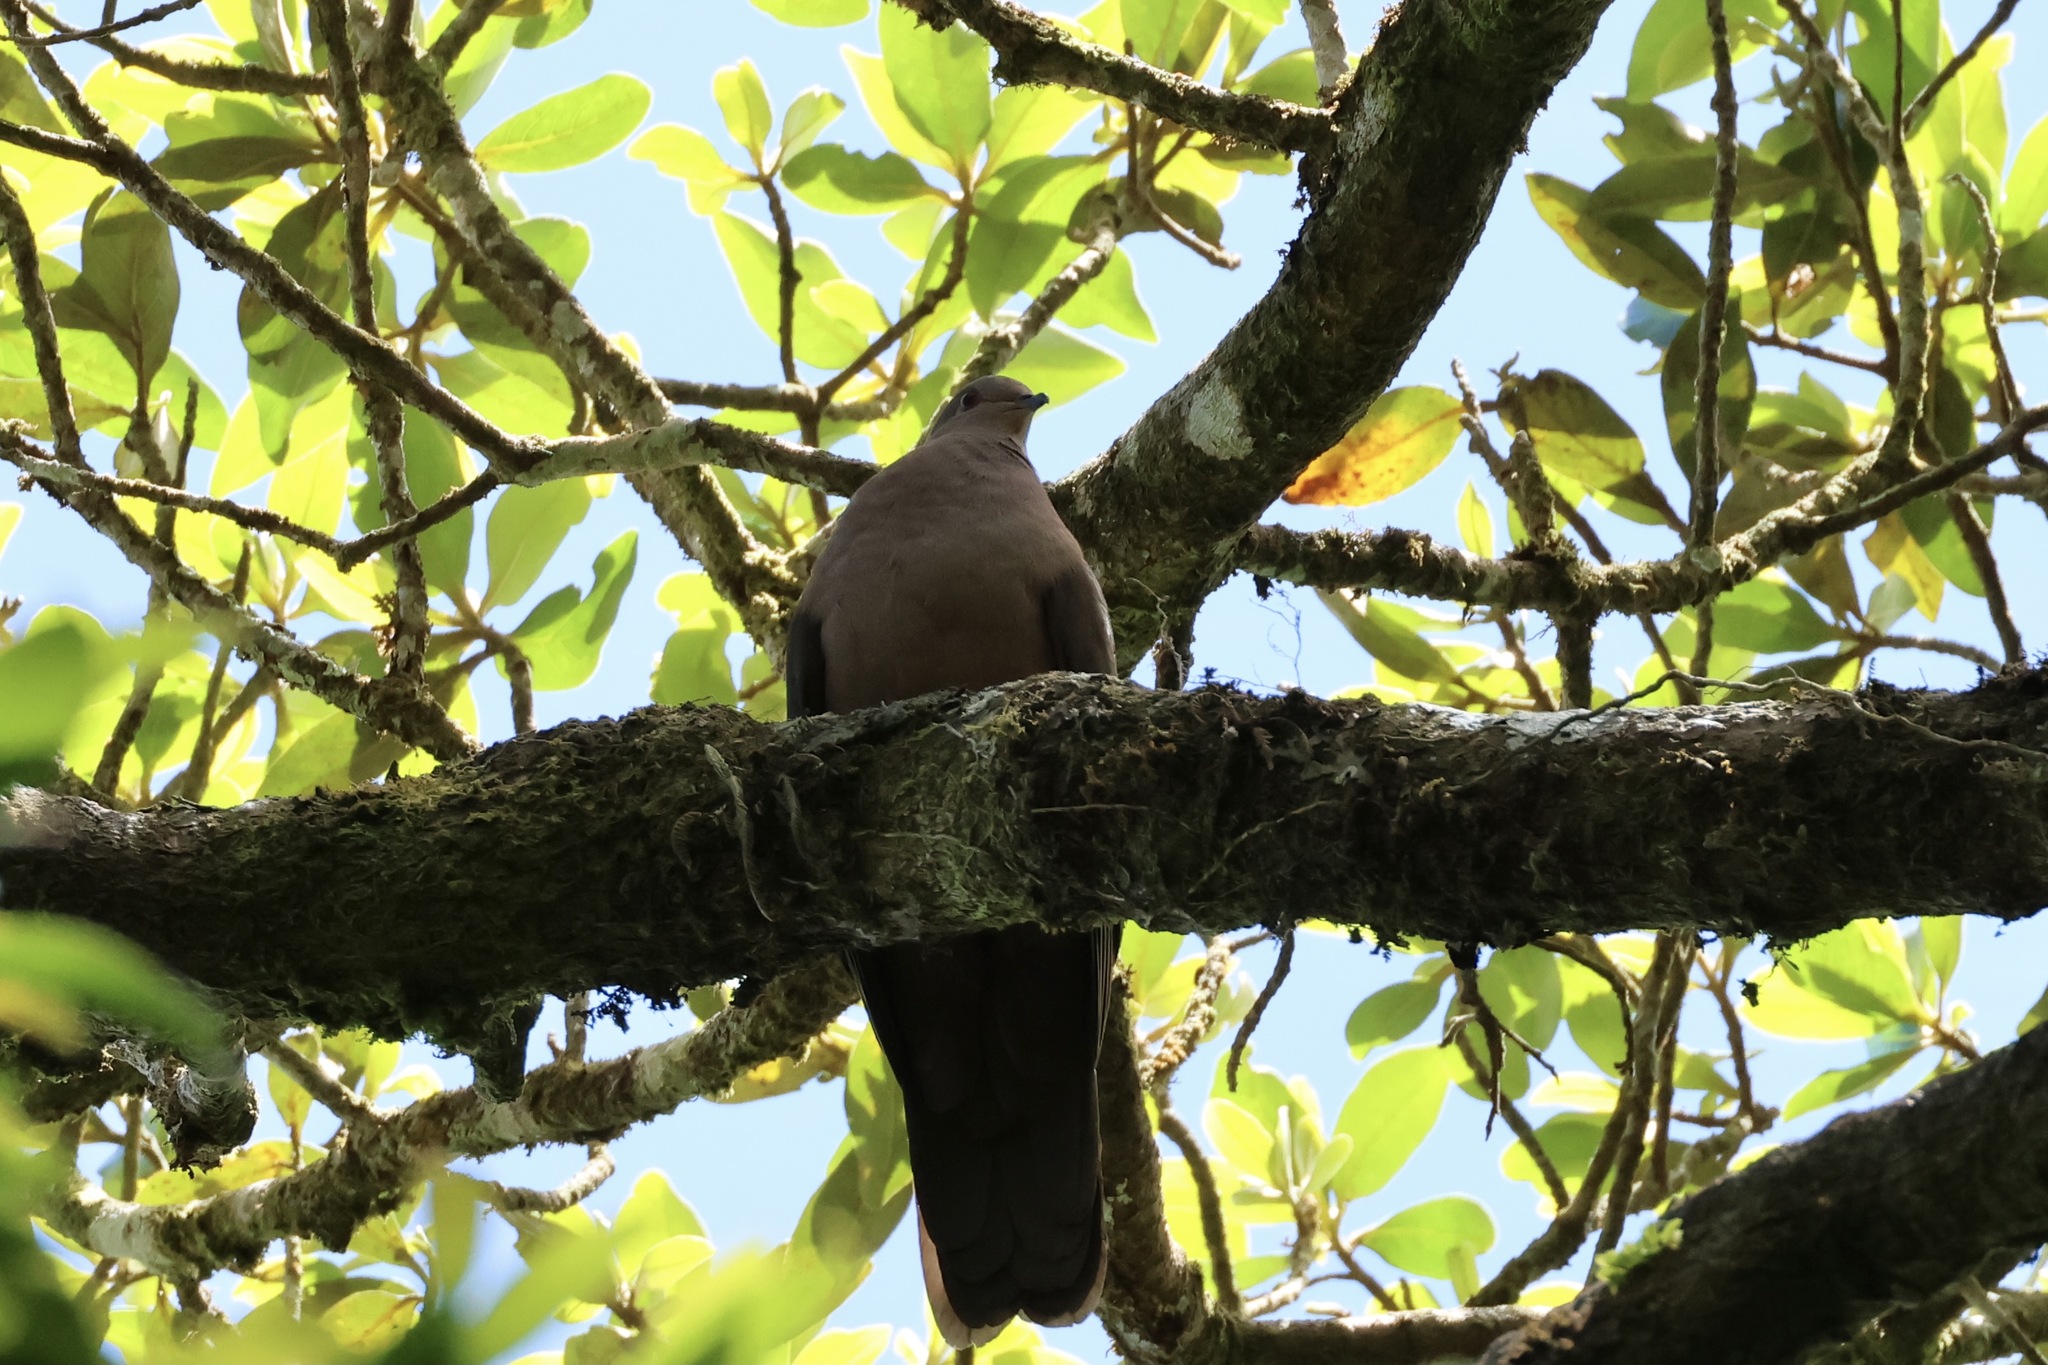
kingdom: Animalia
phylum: Chordata
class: Aves
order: Columbiformes
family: Columbidae
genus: Patagioenas
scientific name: Patagioenas subvinacea
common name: Ruddy pigeon
